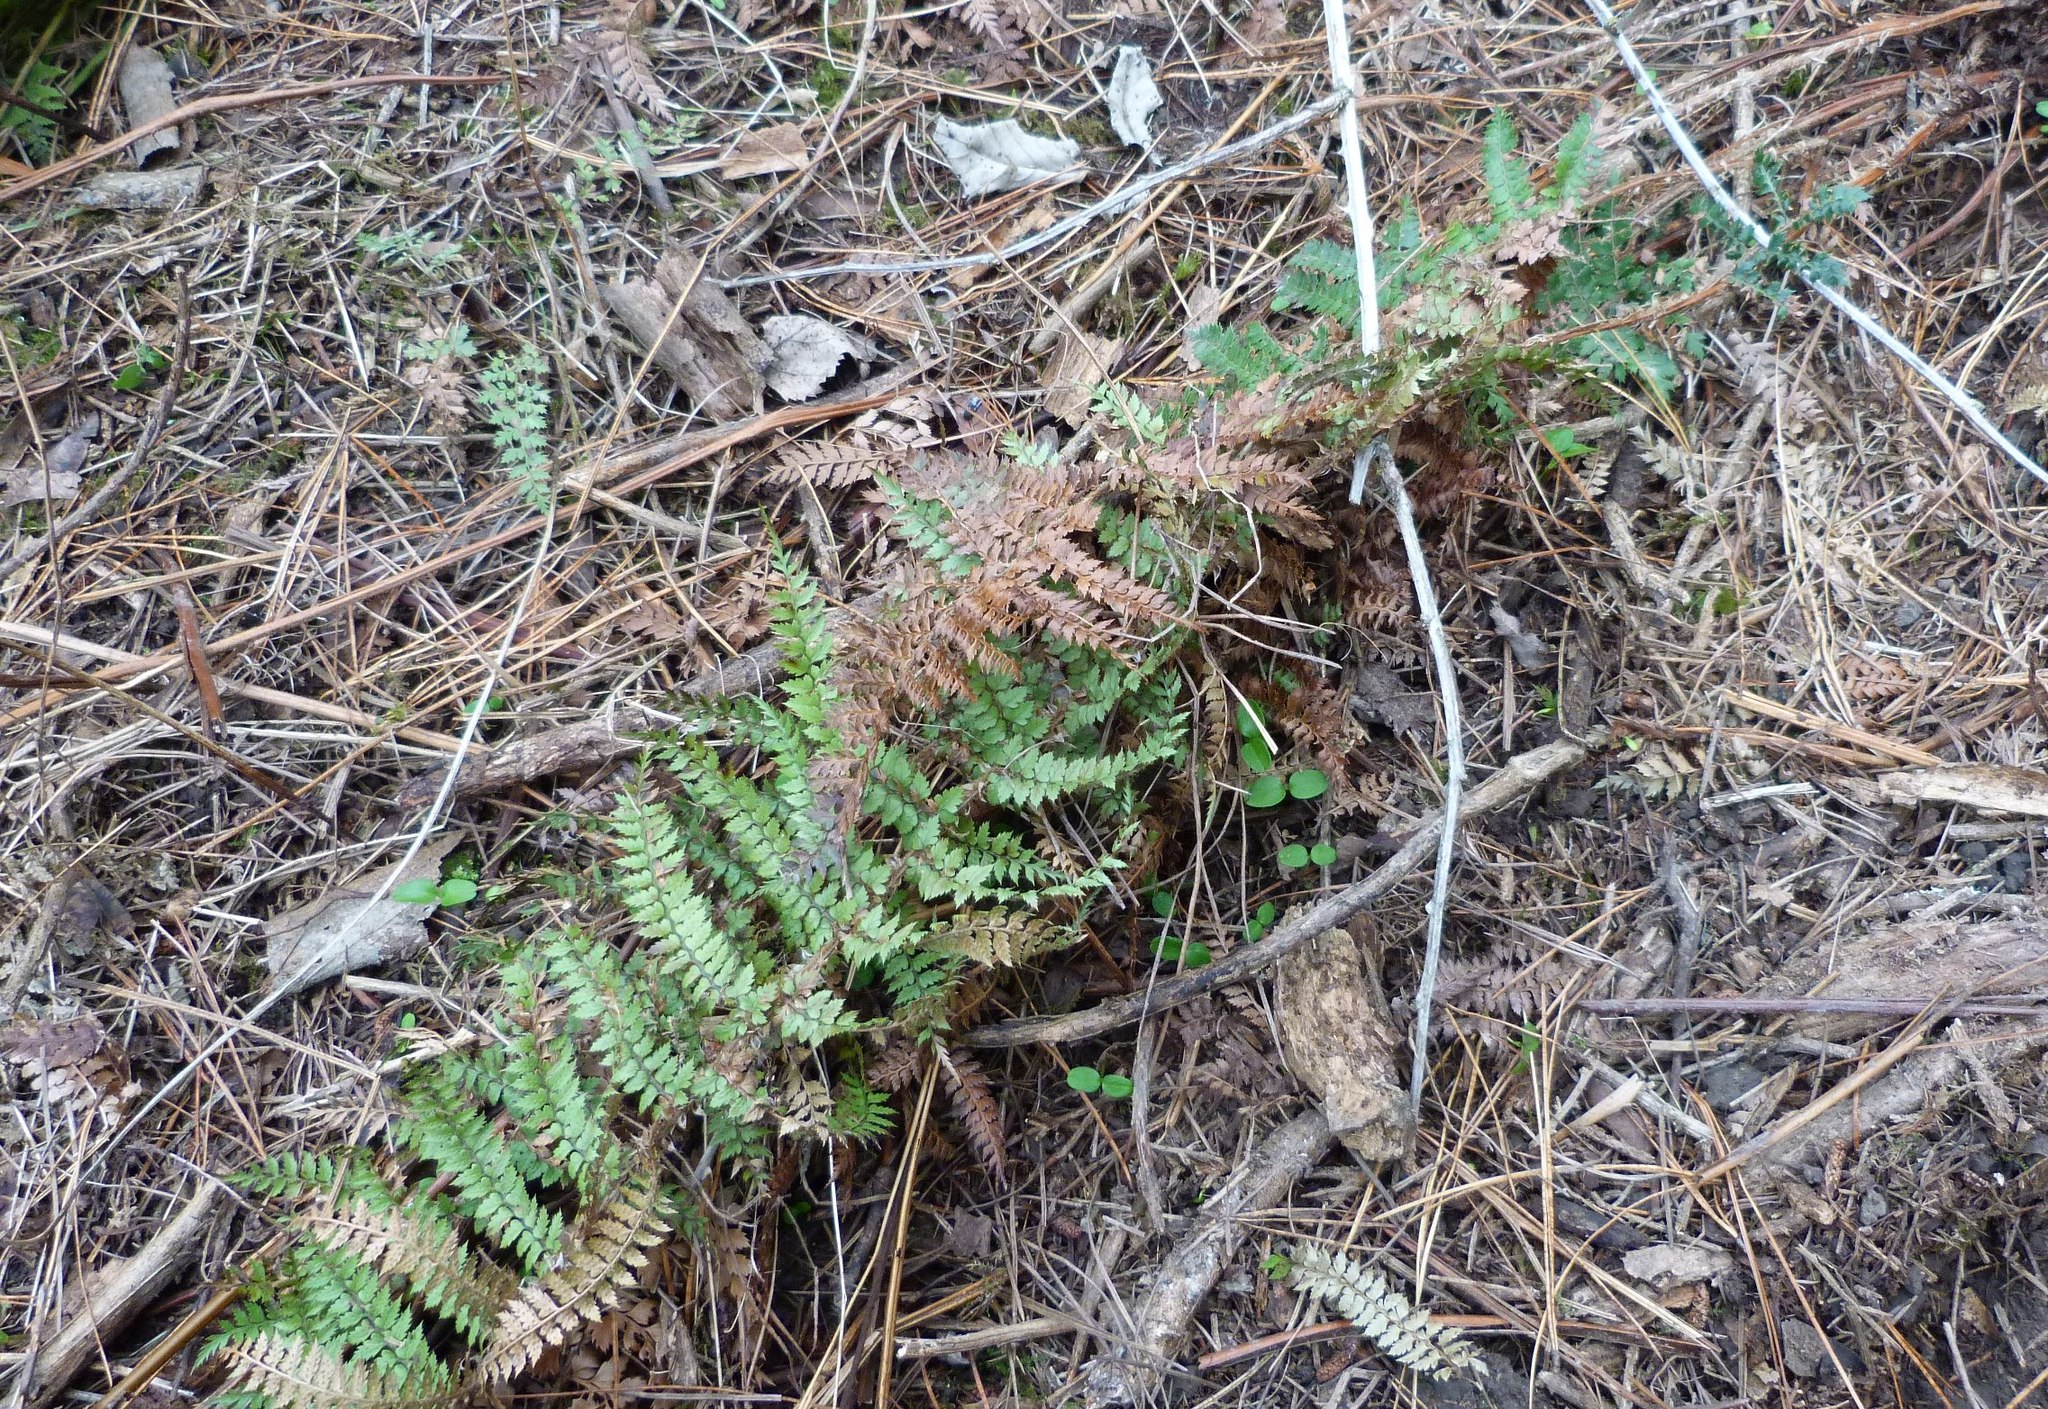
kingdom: Plantae
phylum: Tracheophyta
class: Polypodiopsida
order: Polypodiales
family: Dryopteridaceae
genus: Polystichum
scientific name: Polystichum vestitum
